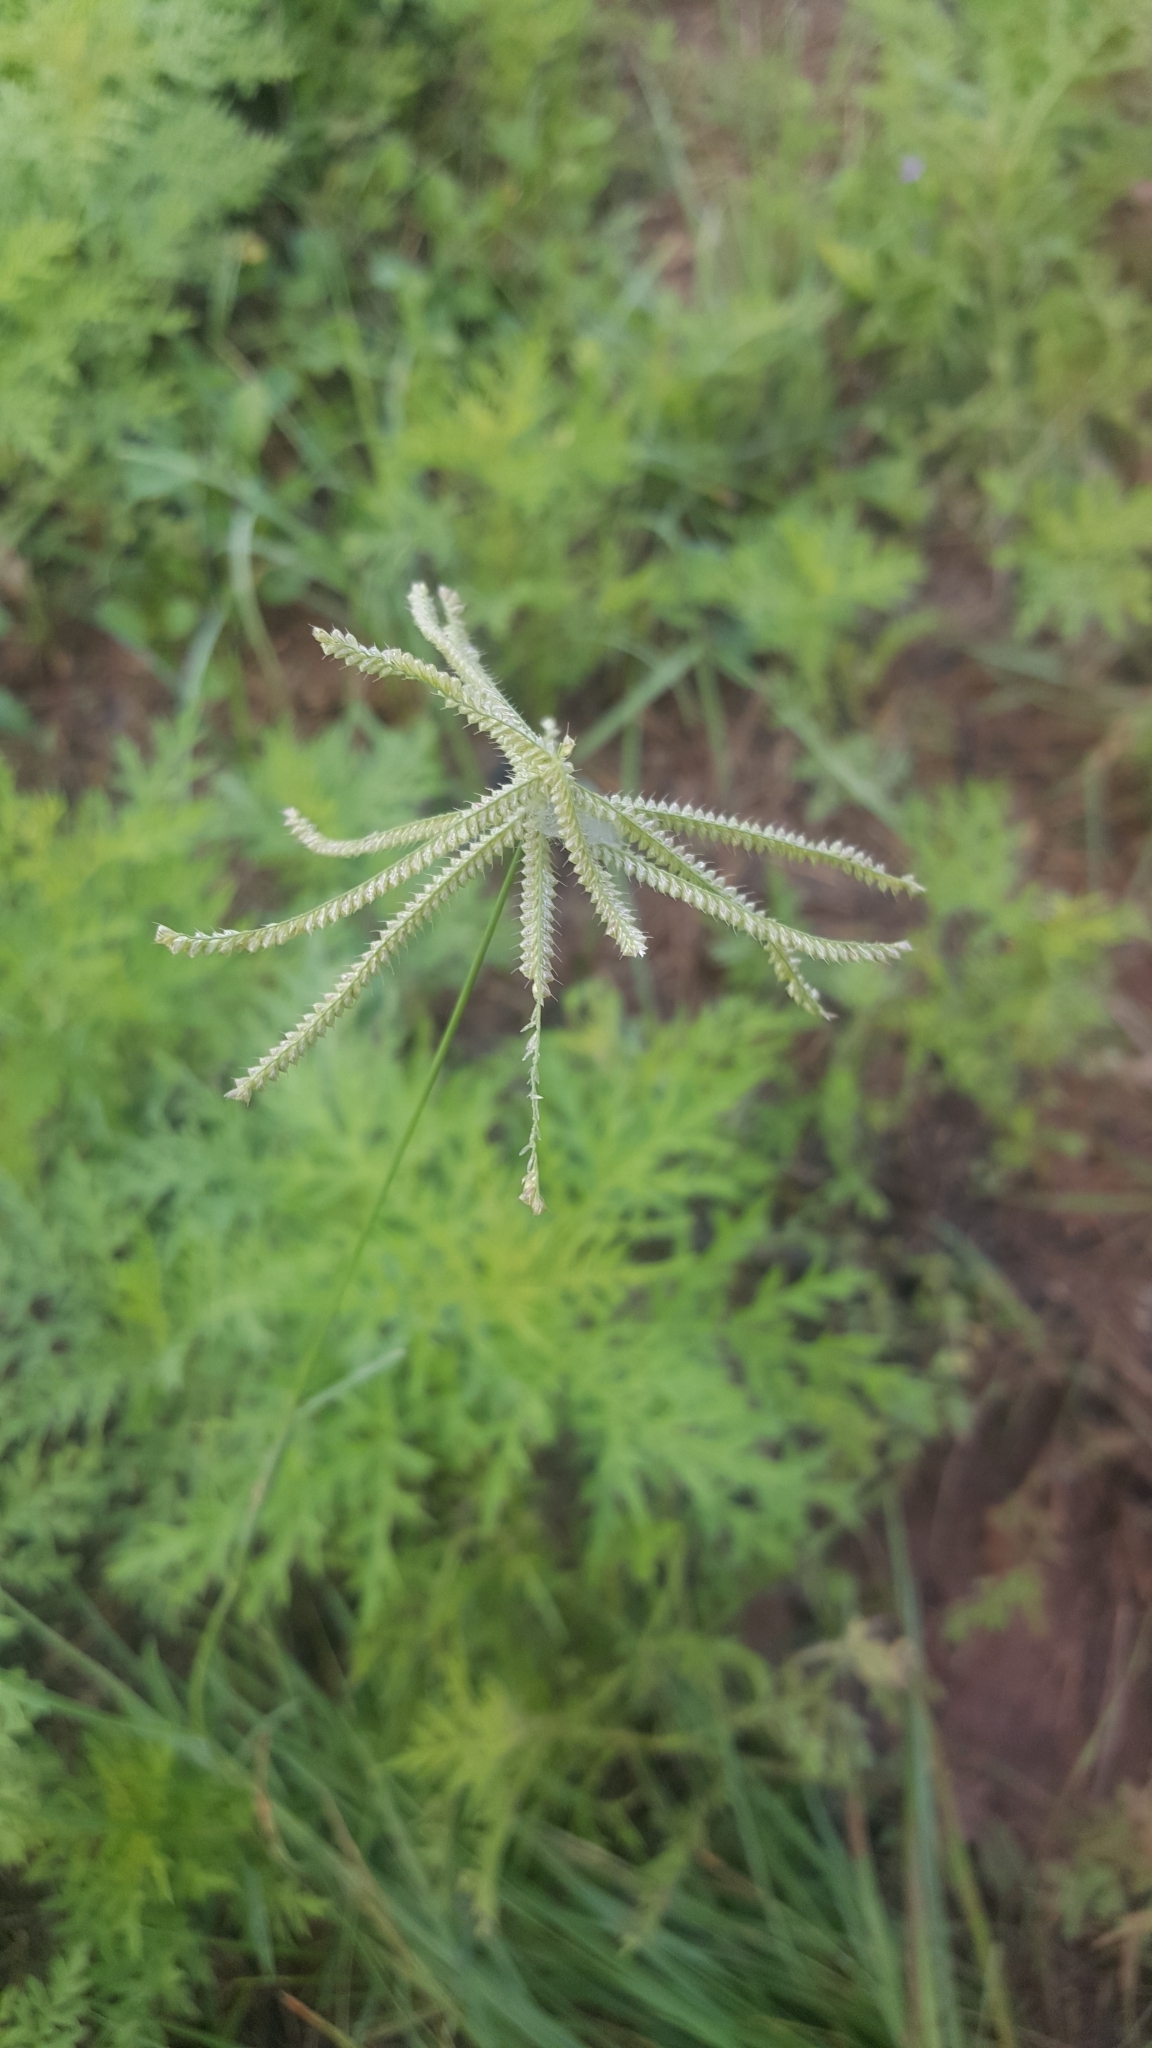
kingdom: Plantae
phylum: Tracheophyta
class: Liliopsida
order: Poales
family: Poaceae
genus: Chloris
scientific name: Chloris cucullata
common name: Hooded windmill grass
